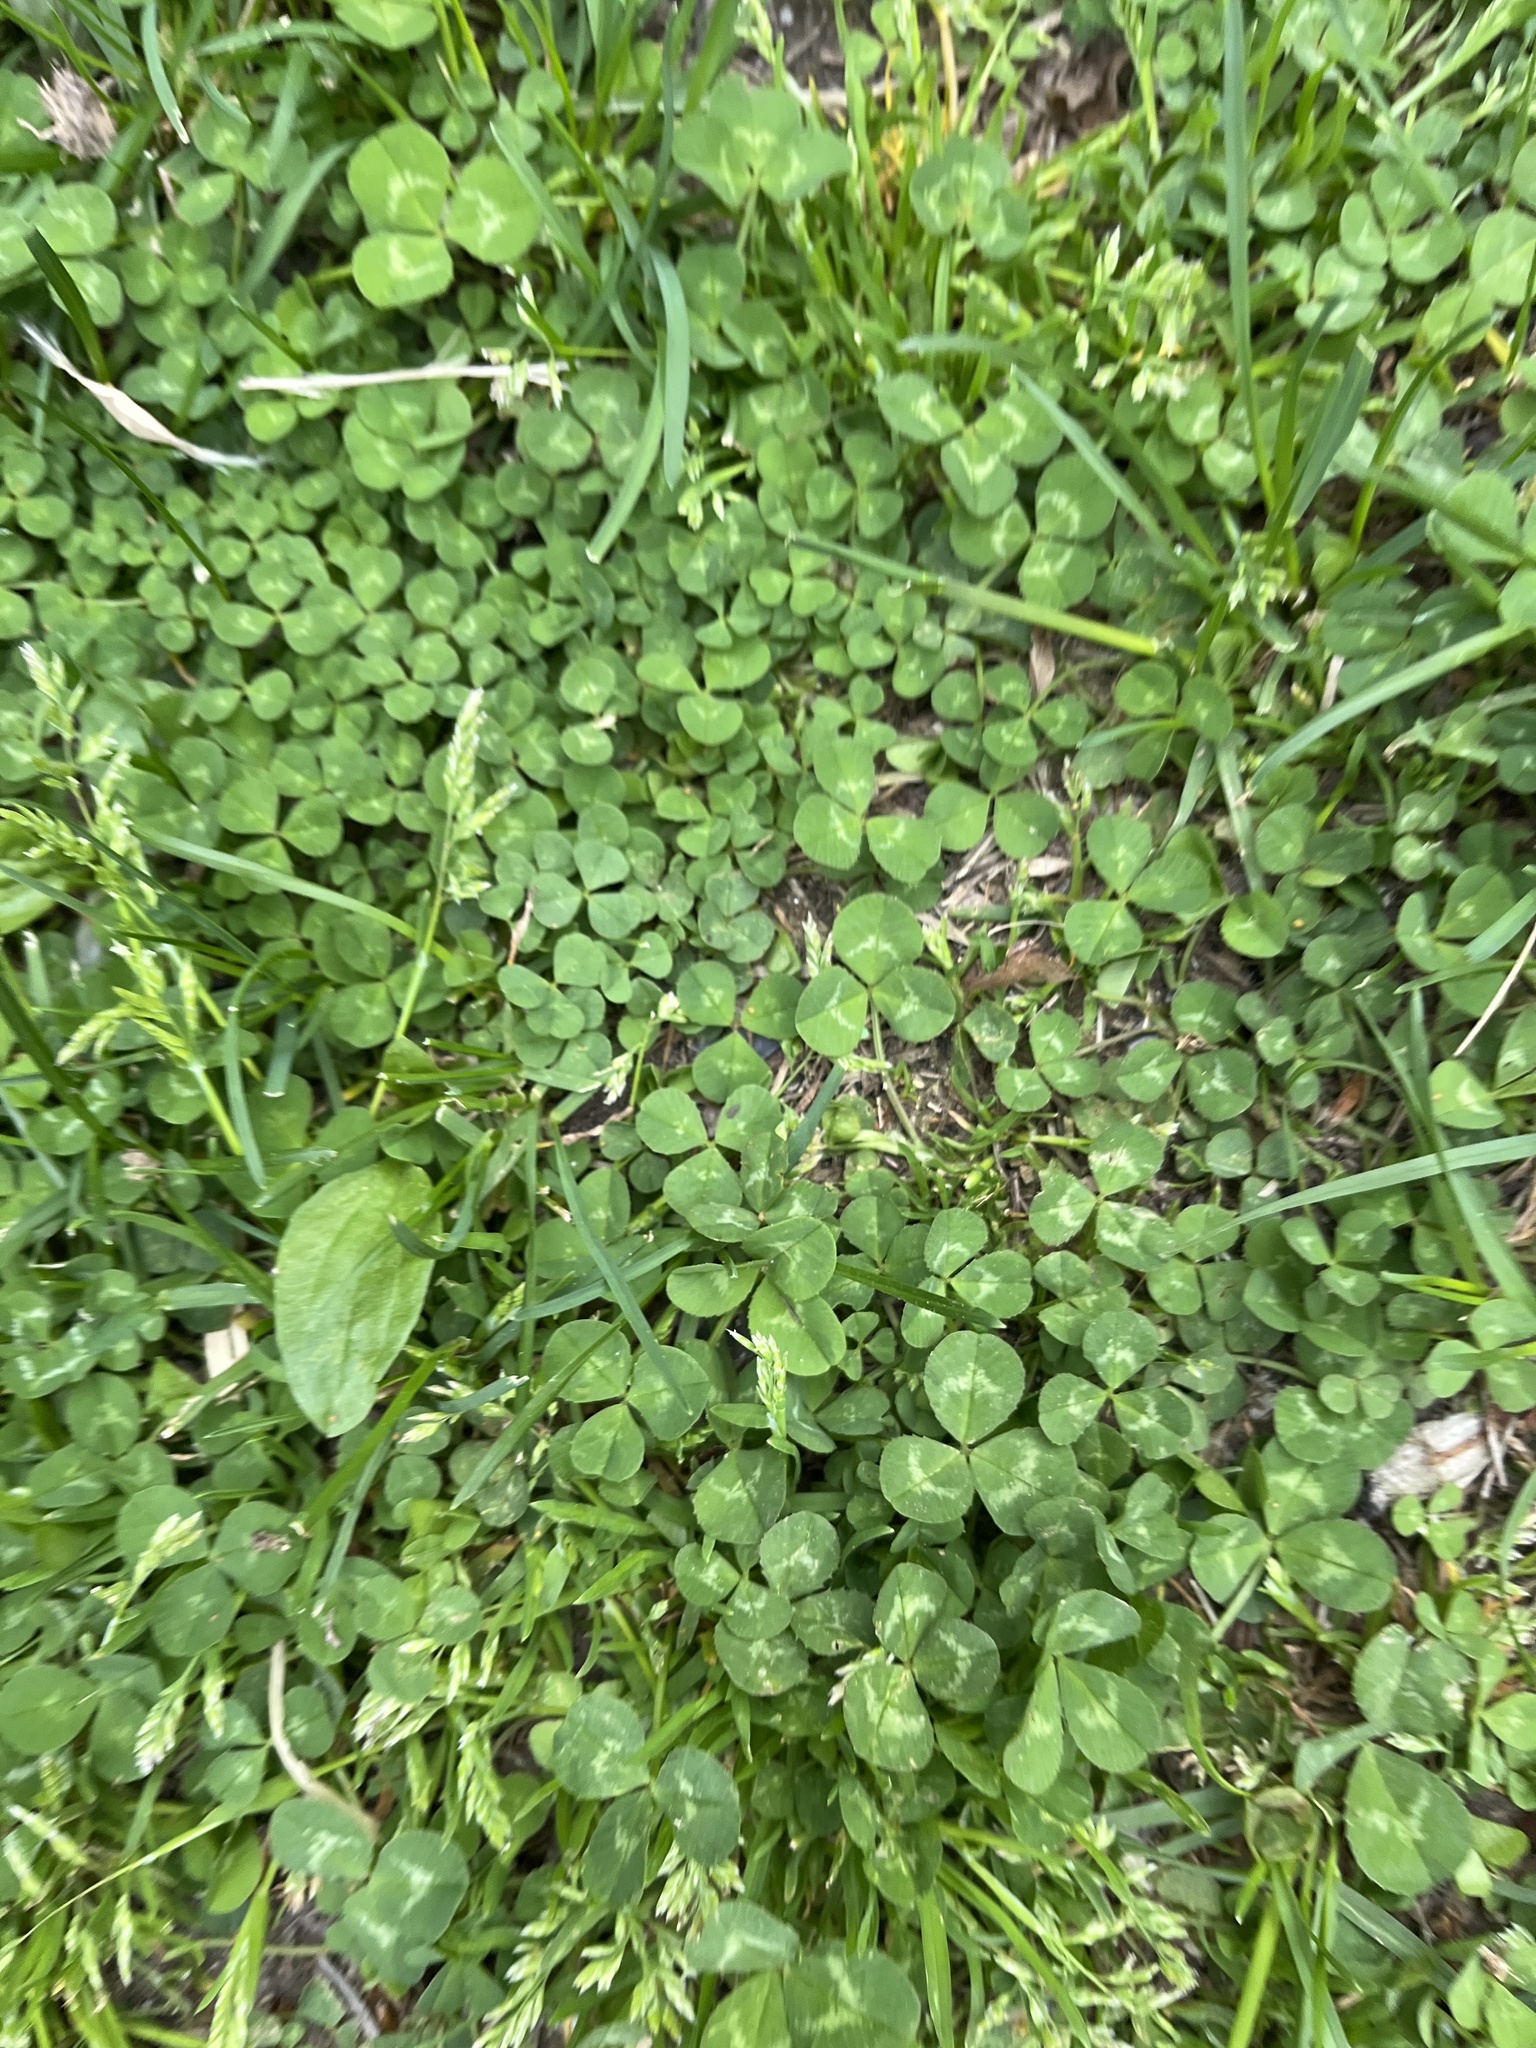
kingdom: Plantae
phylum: Tracheophyta
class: Magnoliopsida
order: Fabales
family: Fabaceae
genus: Trifolium
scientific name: Trifolium repens
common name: White clover
